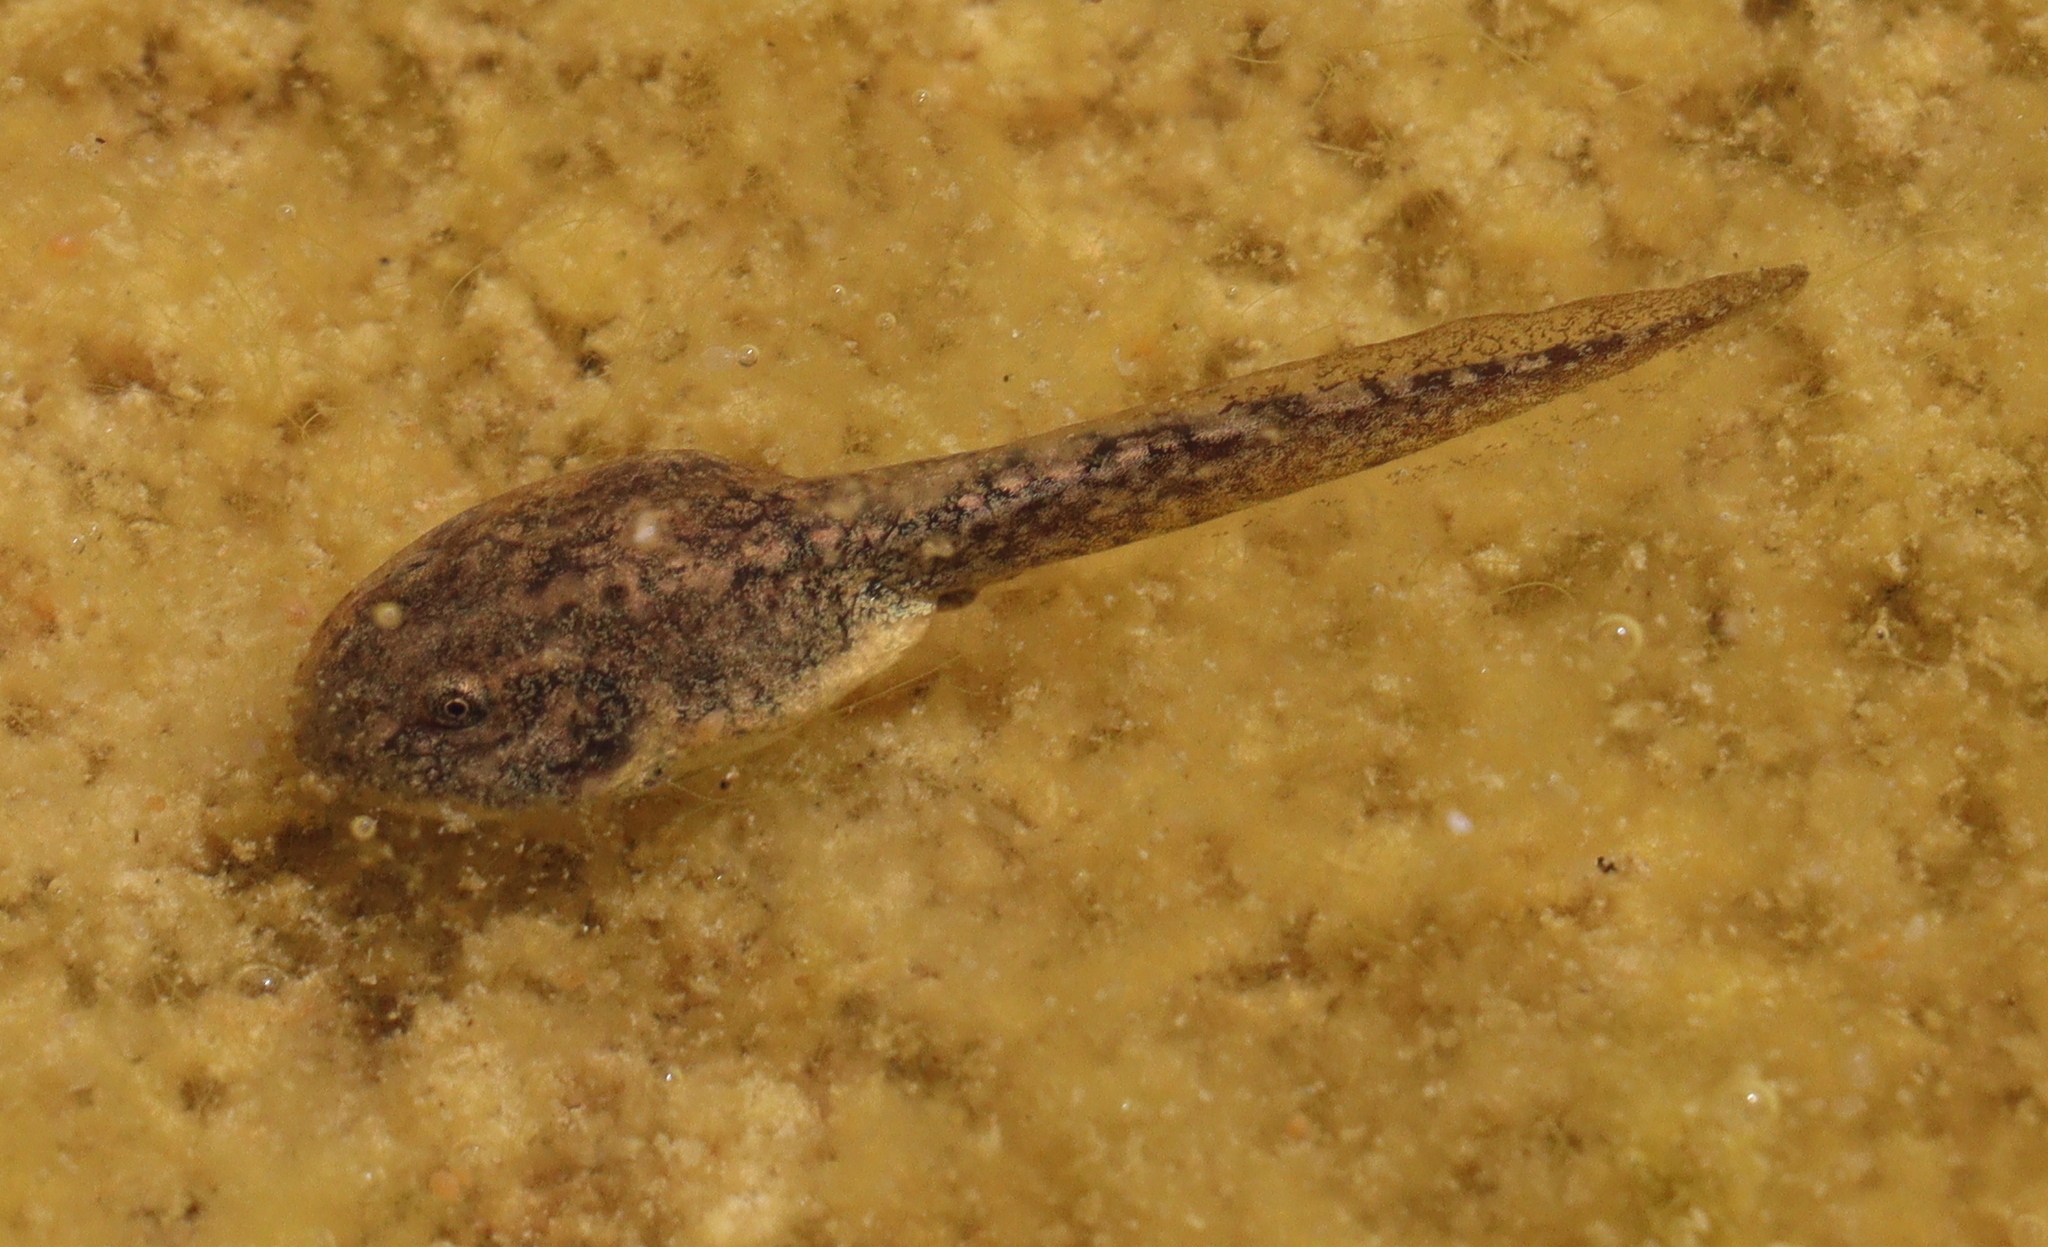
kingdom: Animalia
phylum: Chordata
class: Amphibia
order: Anura
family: Hylidae
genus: Hyla
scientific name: Hyla felixarabica
